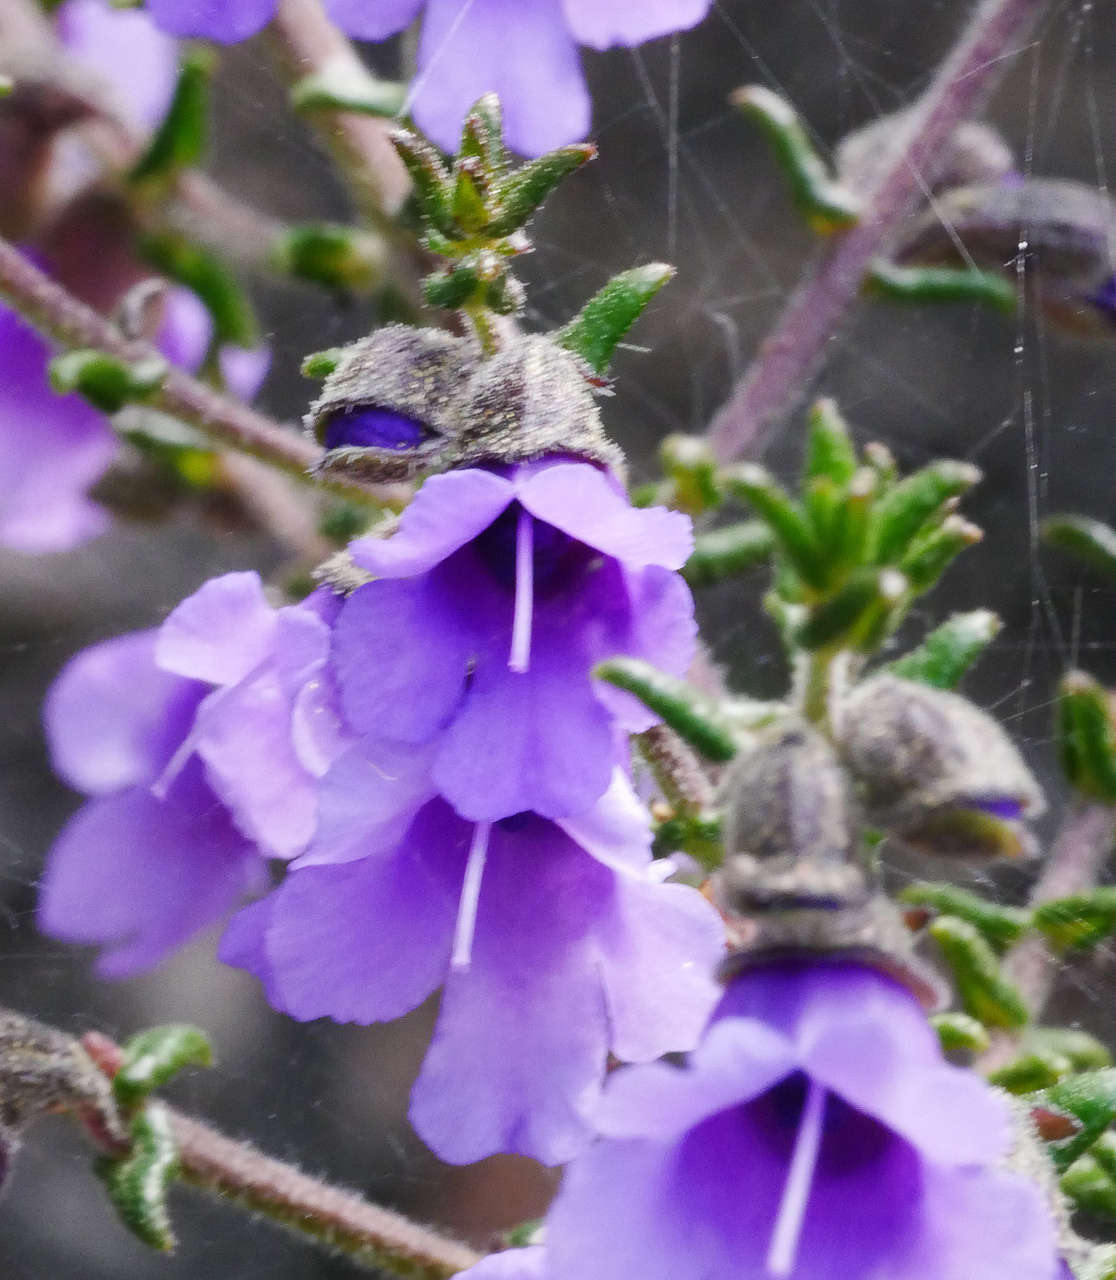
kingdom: Plantae
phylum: Tracheophyta
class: Magnoliopsida
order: Lamiales
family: Lamiaceae
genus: Prostanthera
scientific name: Prostanthera decussata
